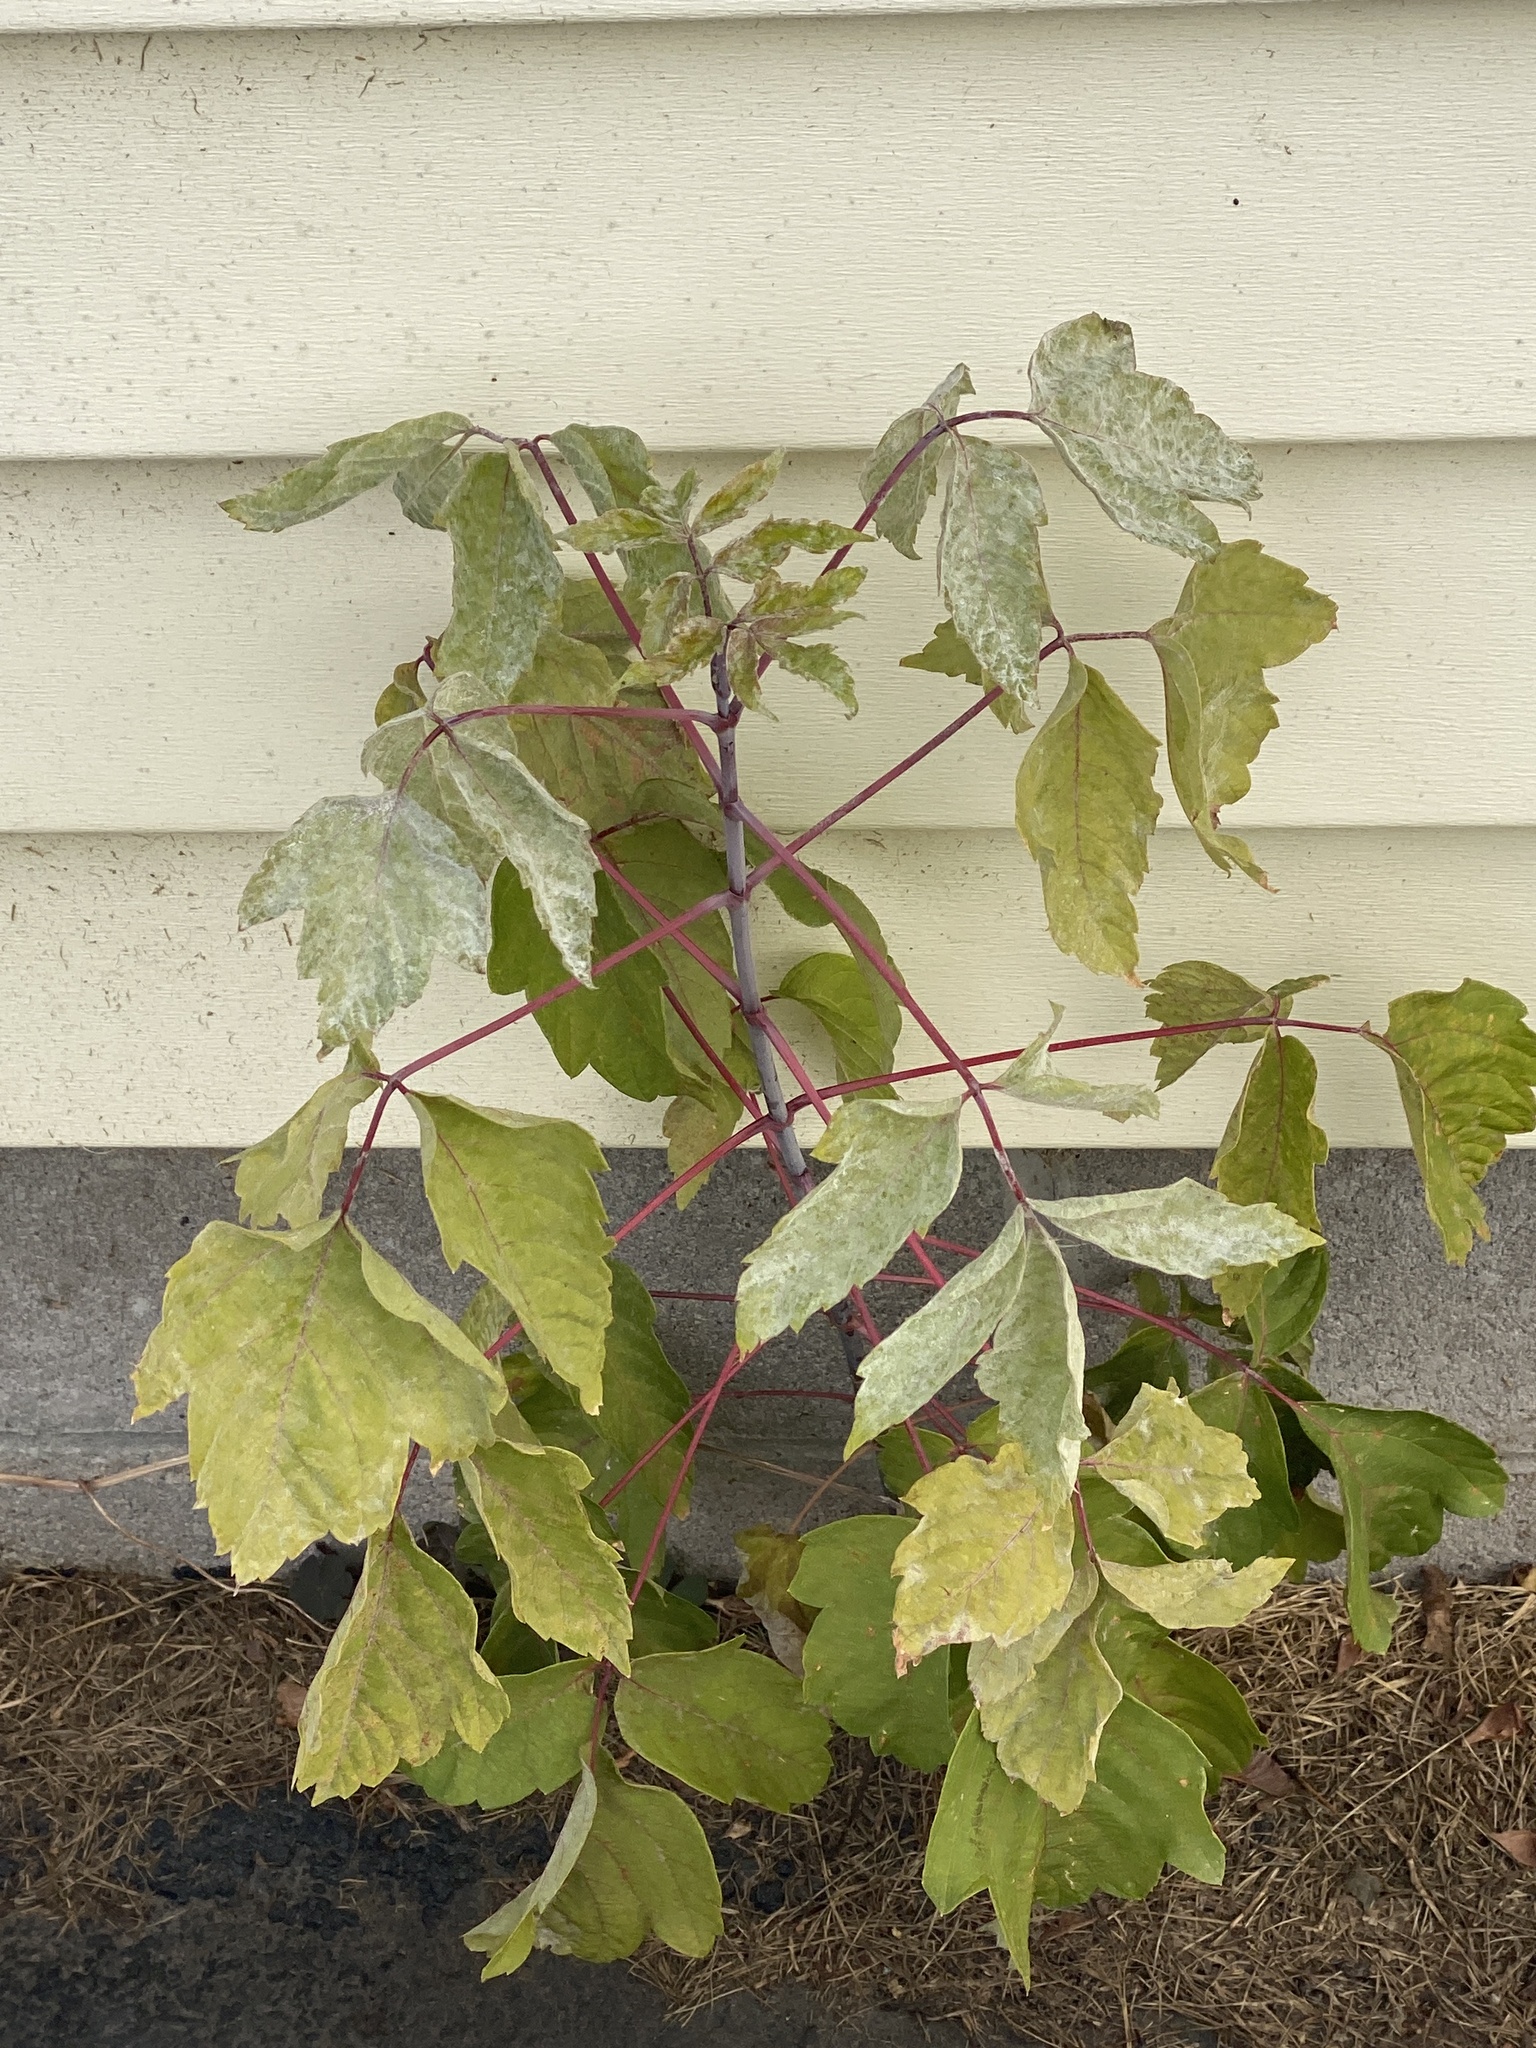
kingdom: Plantae
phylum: Tracheophyta
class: Magnoliopsida
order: Sapindales
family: Sapindaceae
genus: Acer
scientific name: Acer negundo
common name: Ashleaf maple
